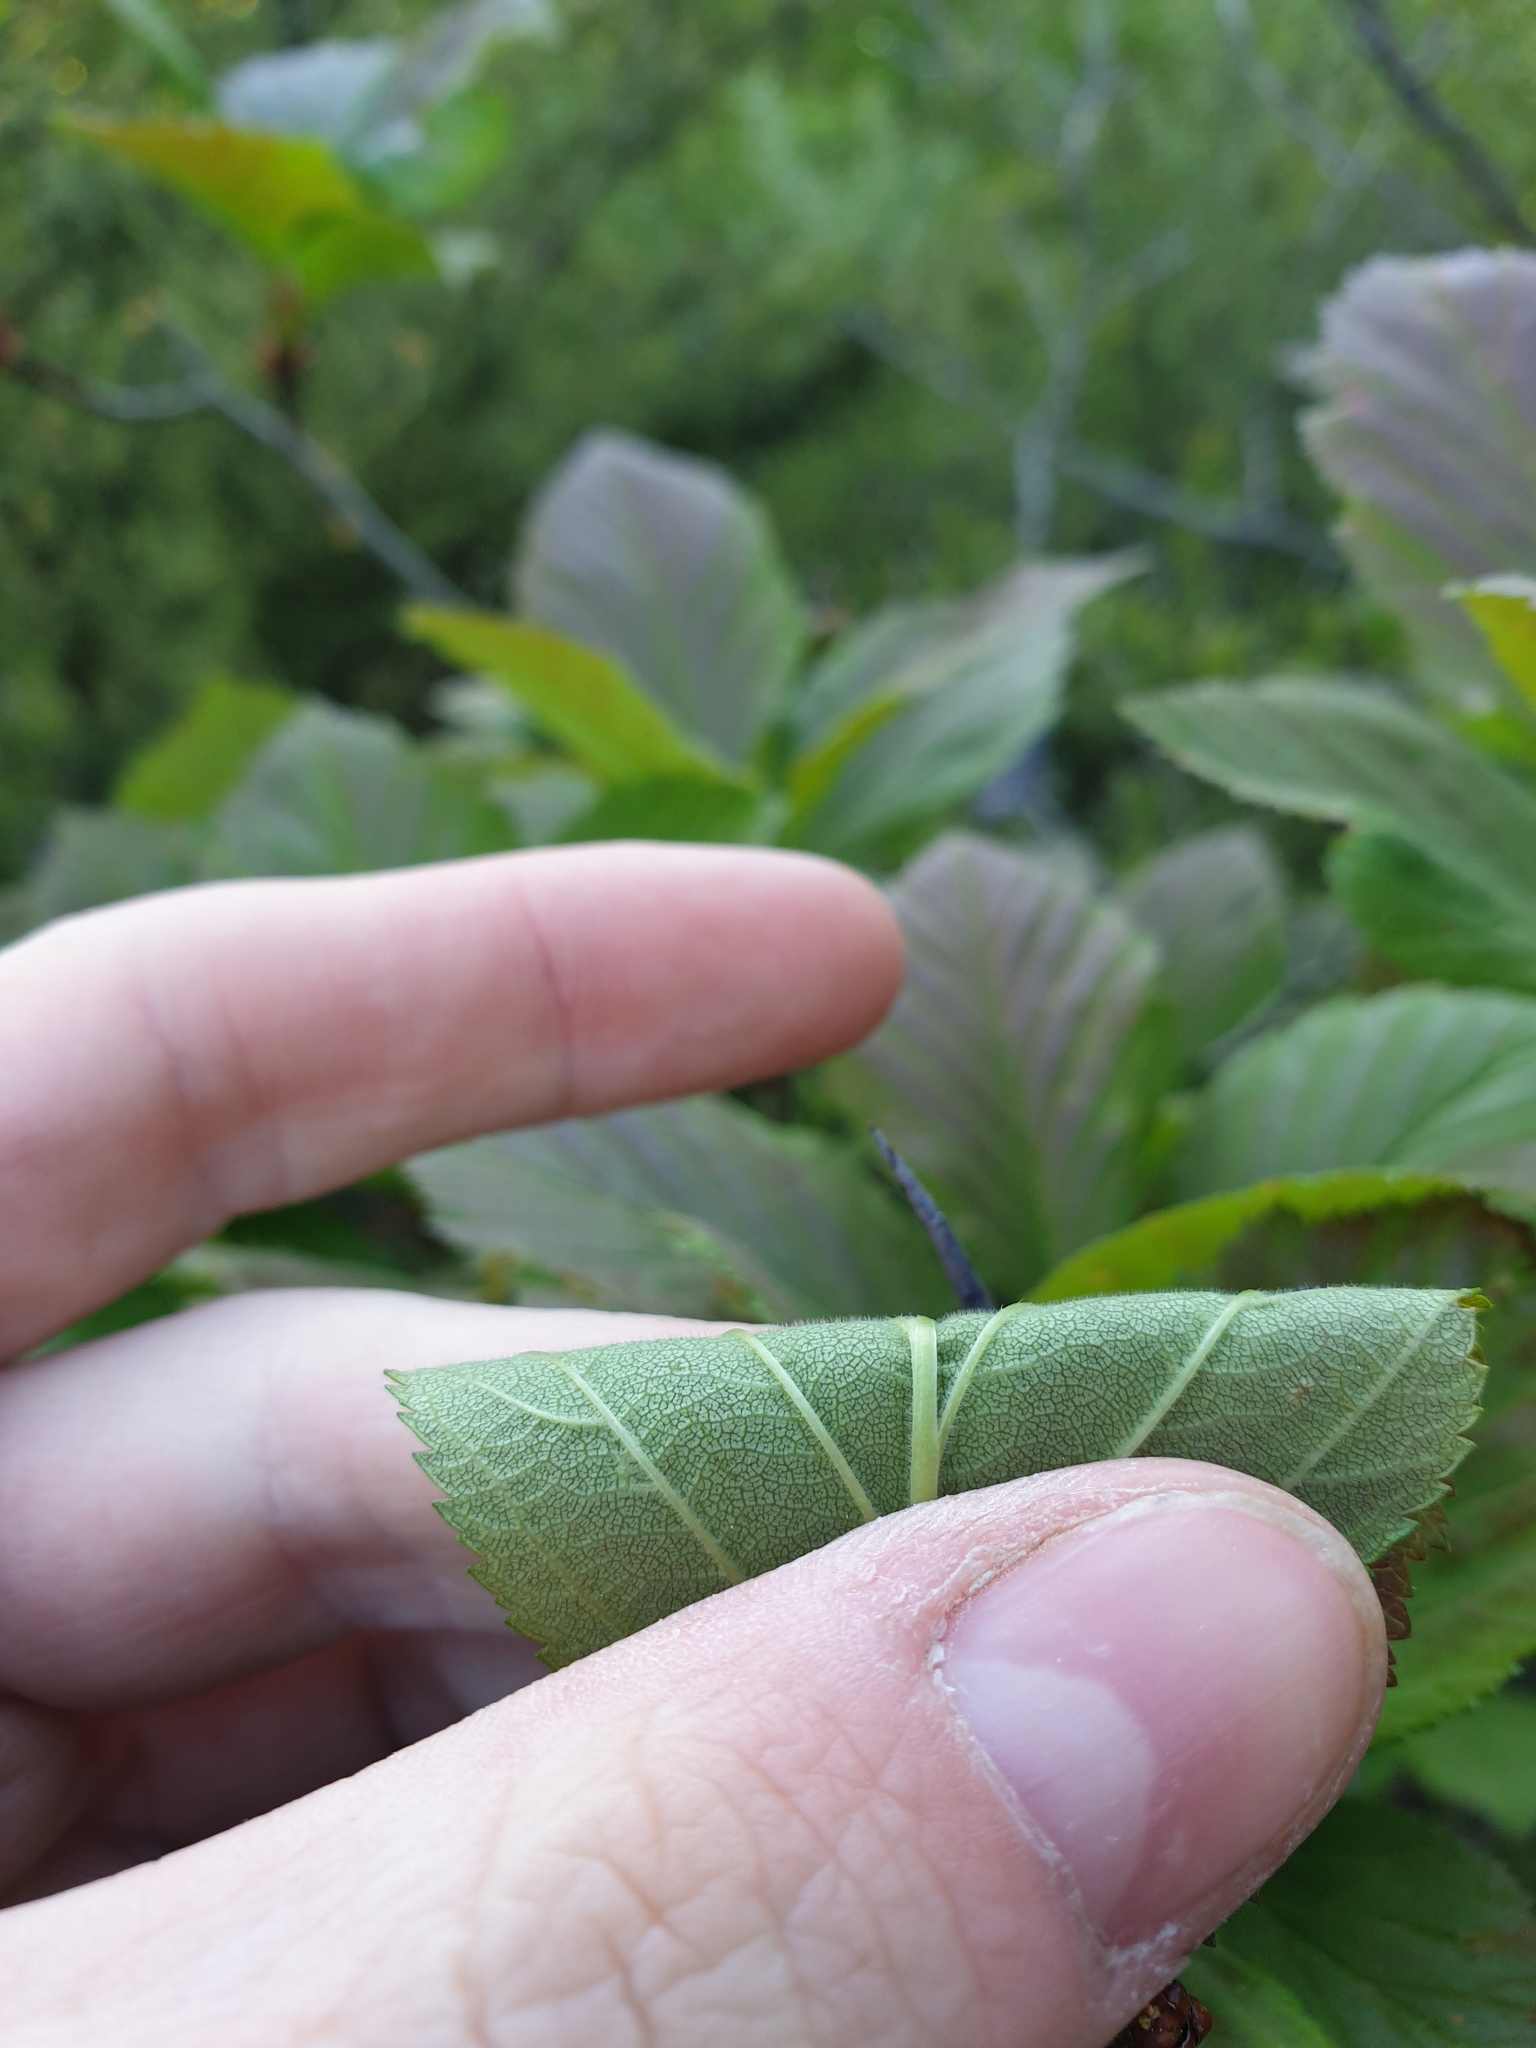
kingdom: Plantae
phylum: Tracheophyta
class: Magnoliopsida
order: Rosales
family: Rosaceae
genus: Crataegus
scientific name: Crataegus succulenta
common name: Fleshy hawthorn
